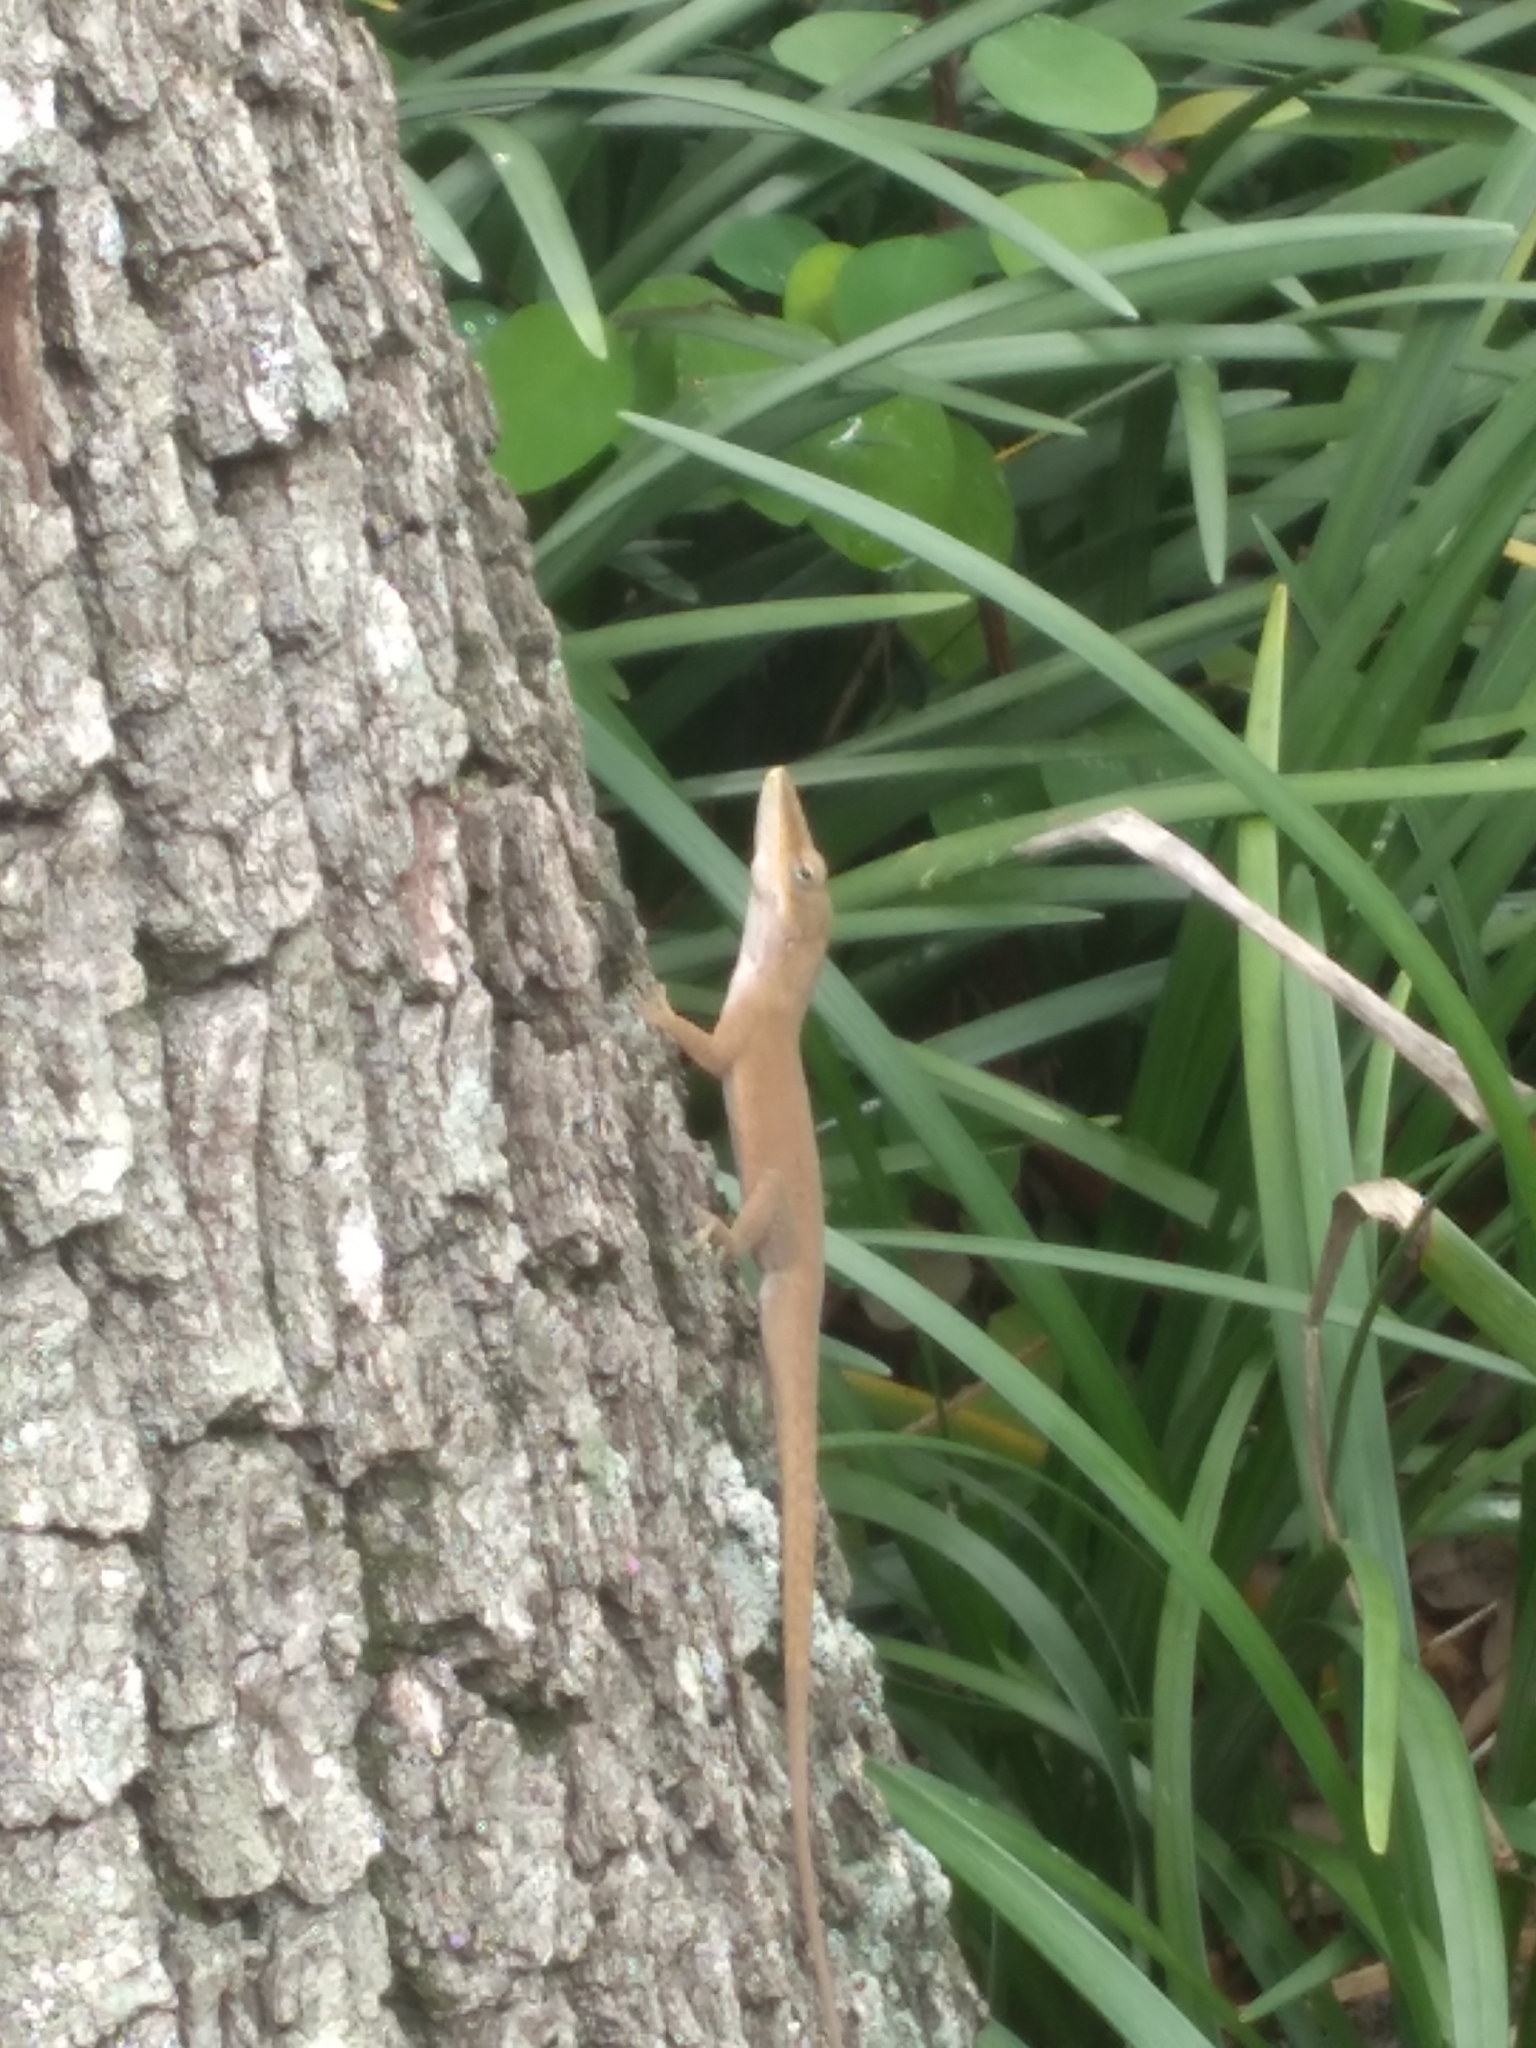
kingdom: Animalia
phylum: Chordata
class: Squamata
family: Dactyloidae
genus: Anolis
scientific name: Anolis carolinensis
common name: Green anole
